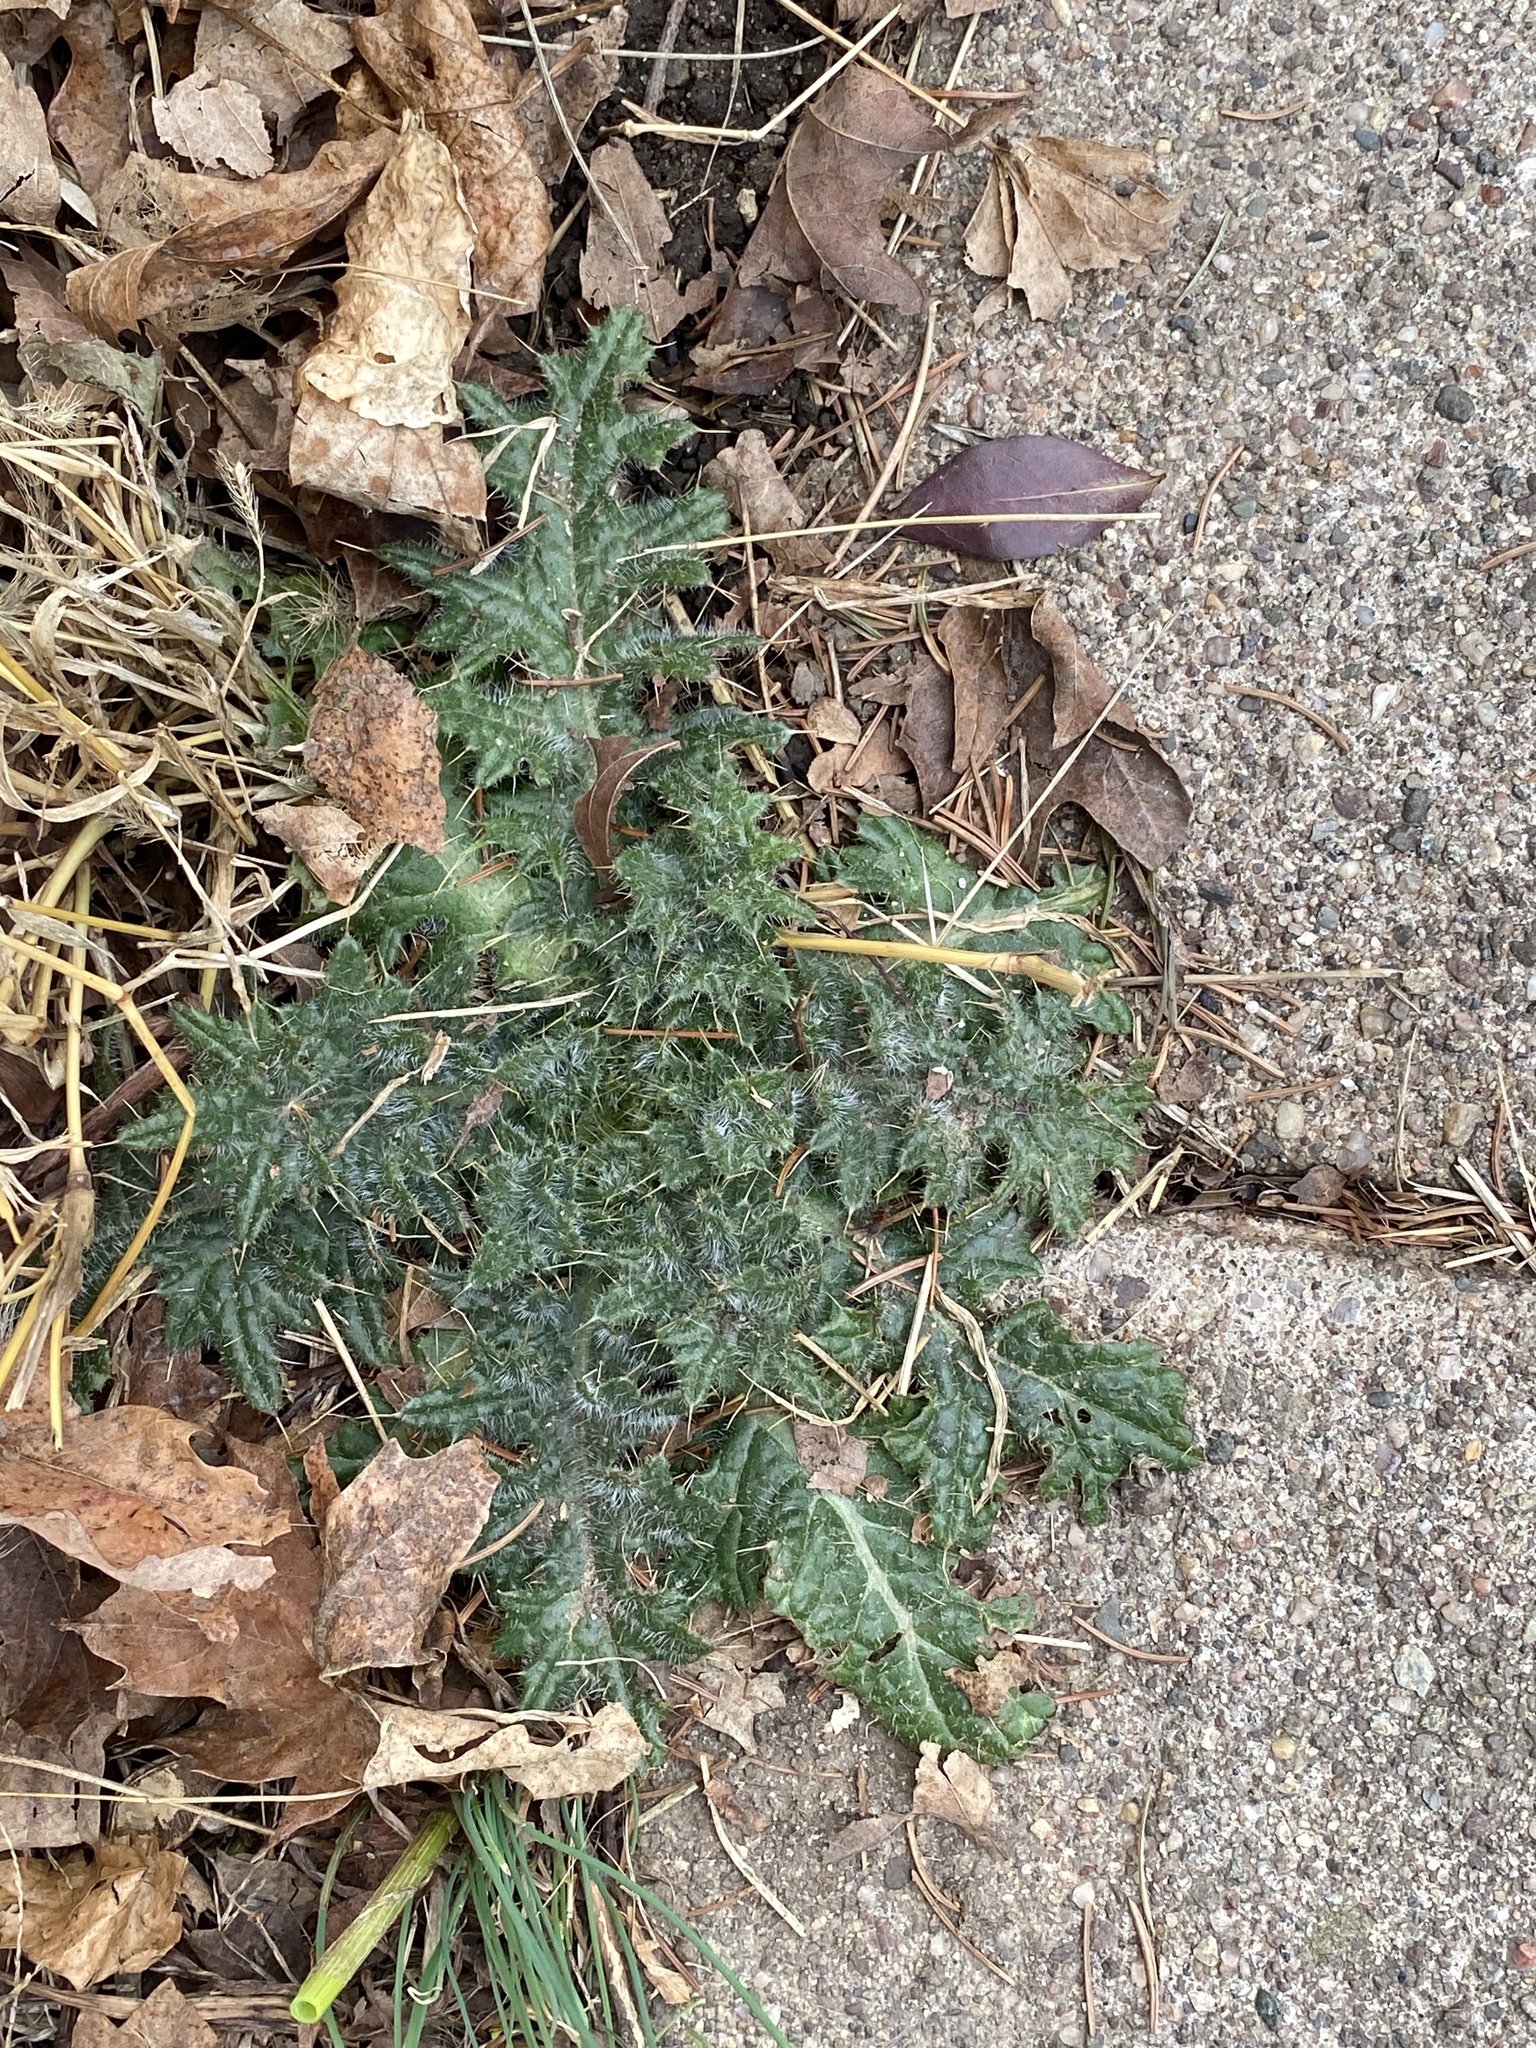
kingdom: Plantae
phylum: Tracheophyta
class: Magnoliopsida
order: Asterales
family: Asteraceae
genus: Cirsium
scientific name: Cirsium vulgare
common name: Bull thistle
